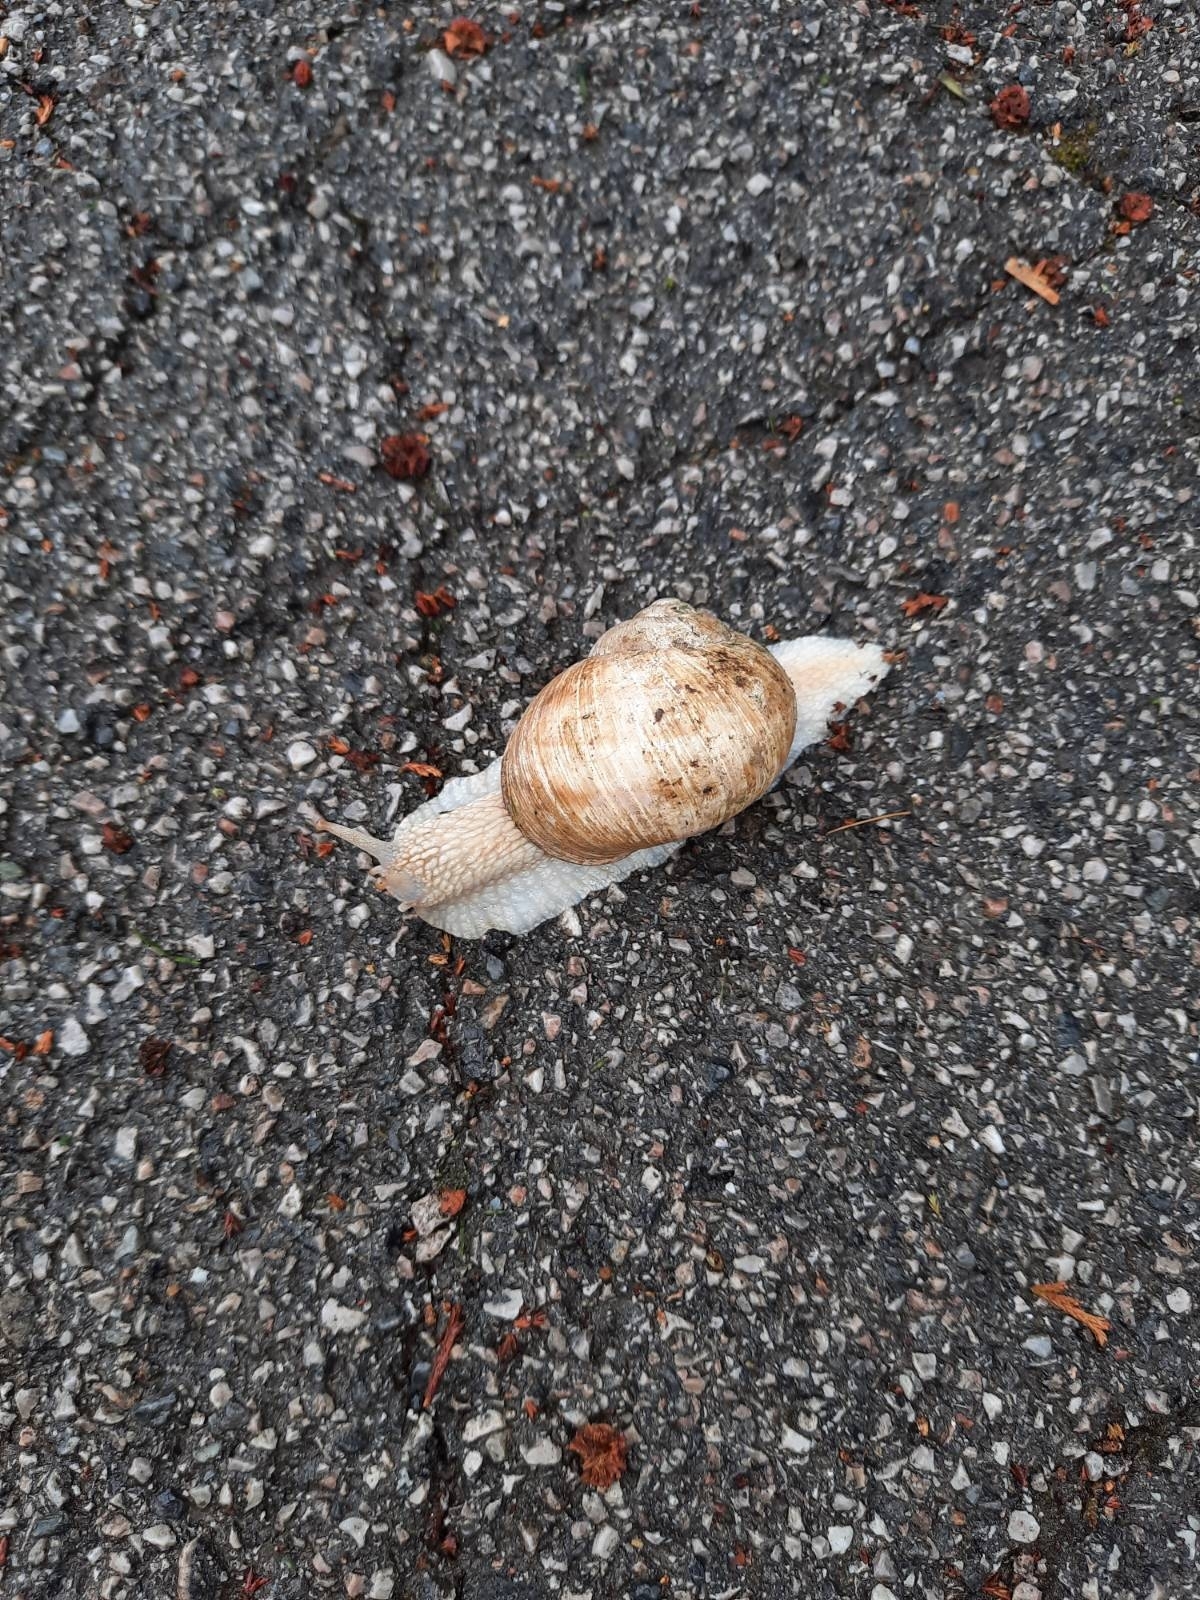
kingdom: Animalia
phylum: Mollusca
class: Gastropoda
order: Stylommatophora
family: Helicidae
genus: Helix
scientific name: Helix pomatia
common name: Roman snail
